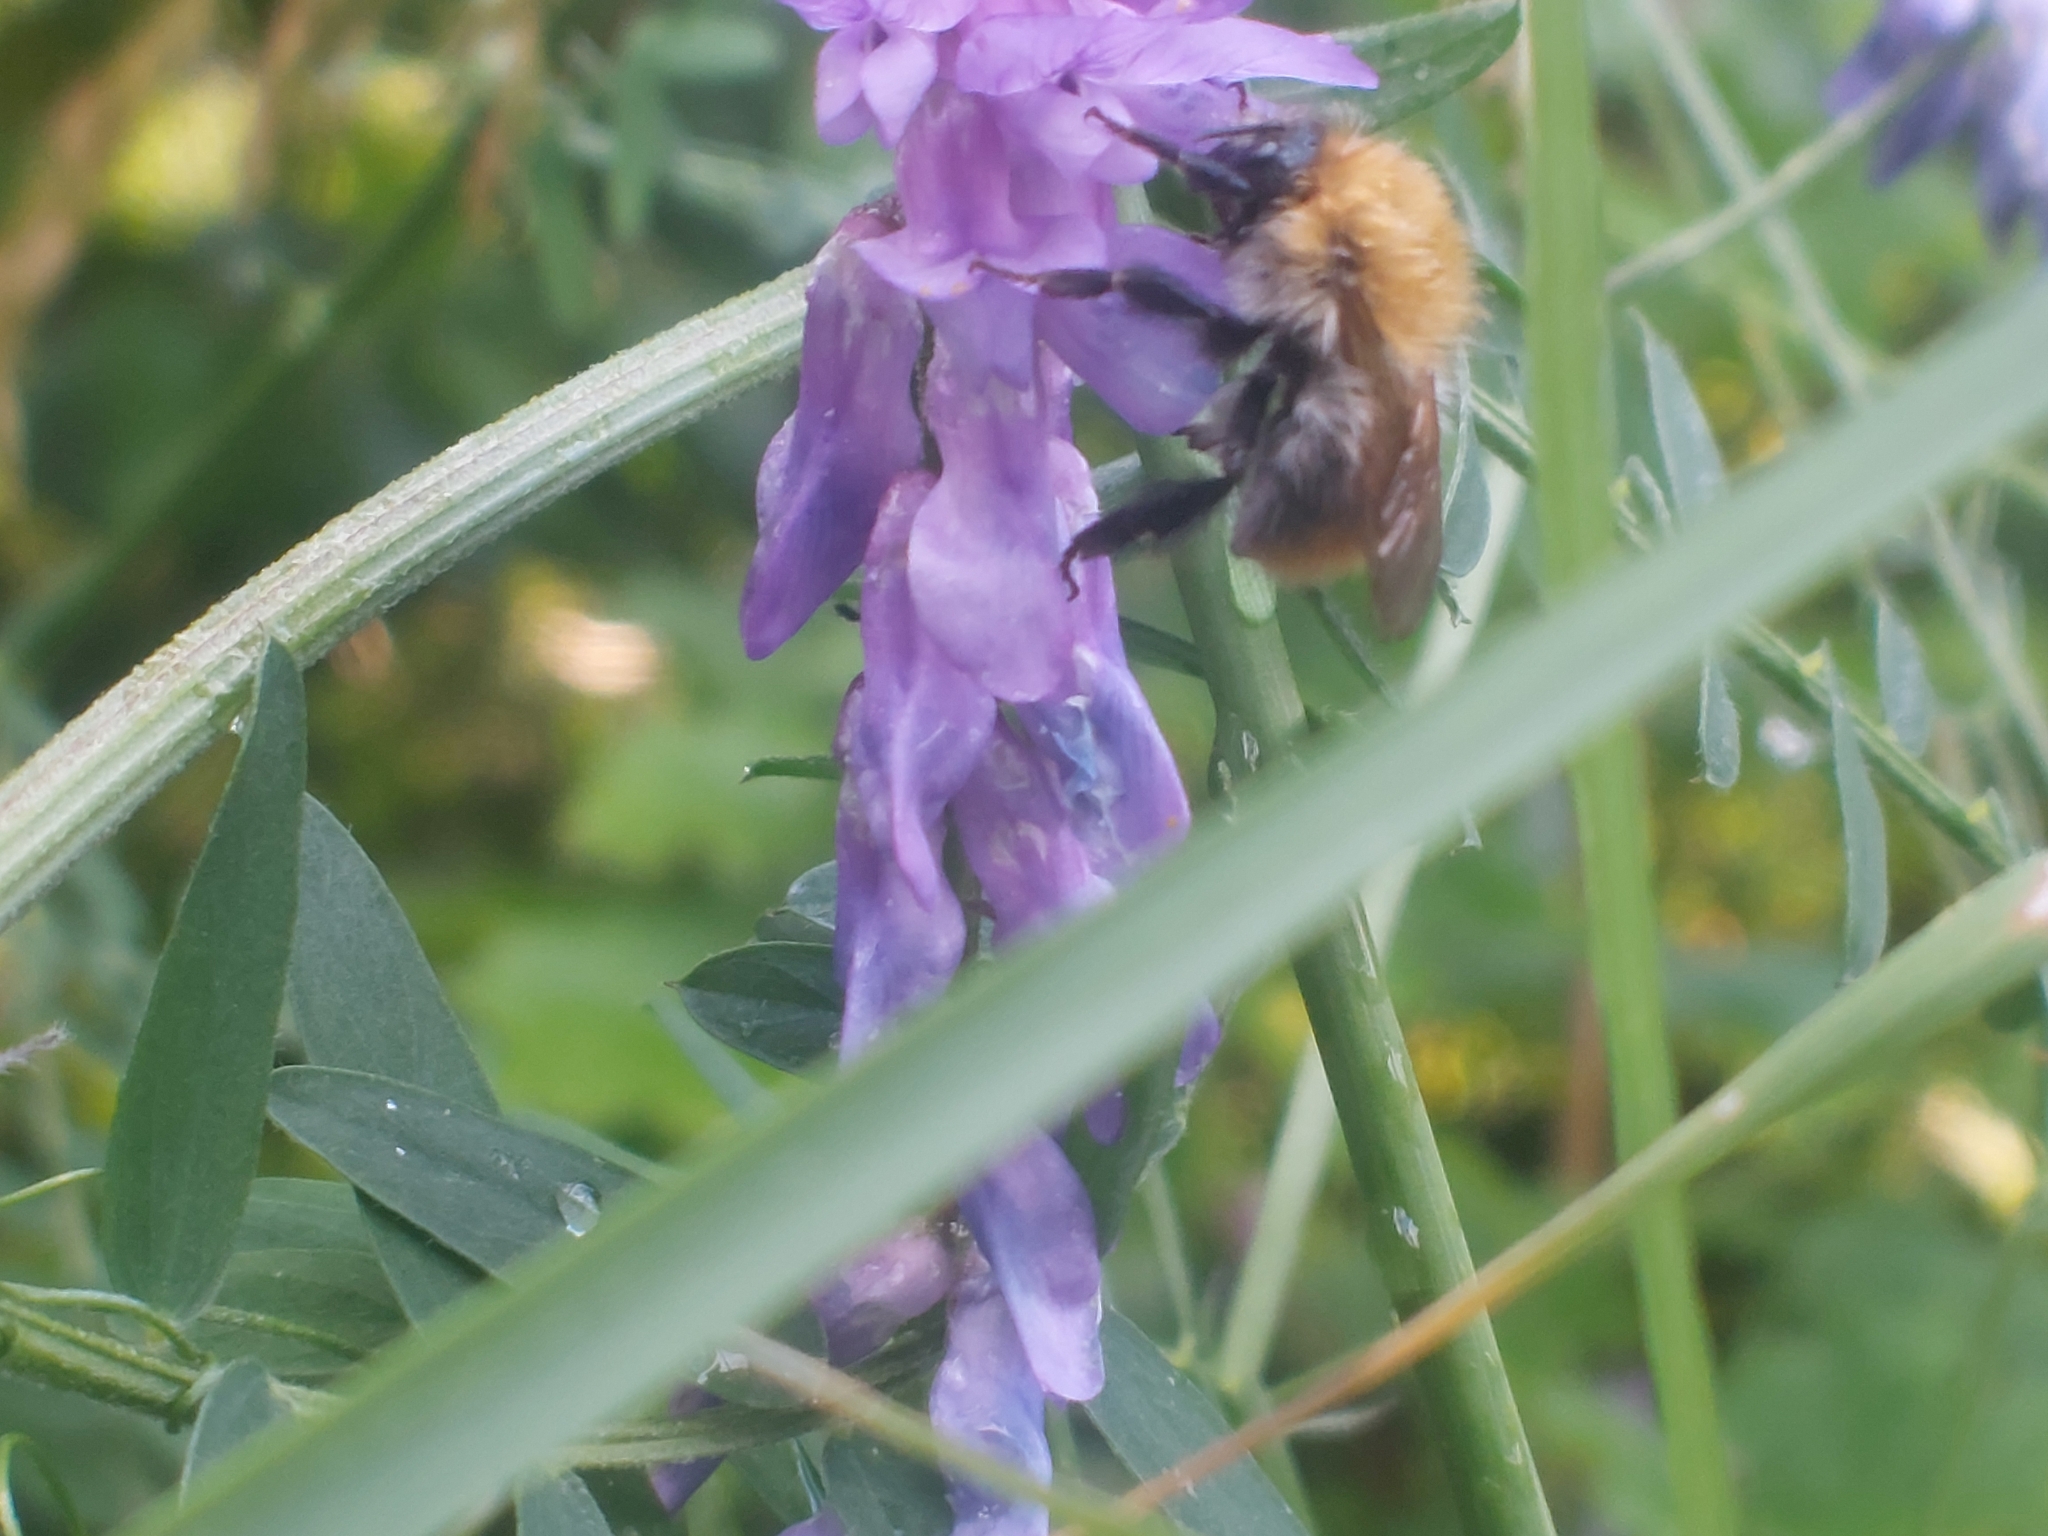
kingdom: Animalia
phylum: Arthropoda
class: Insecta
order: Hymenoptera
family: Apidae
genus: Bombus
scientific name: Bombus pascuorum
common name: Common carder bee
